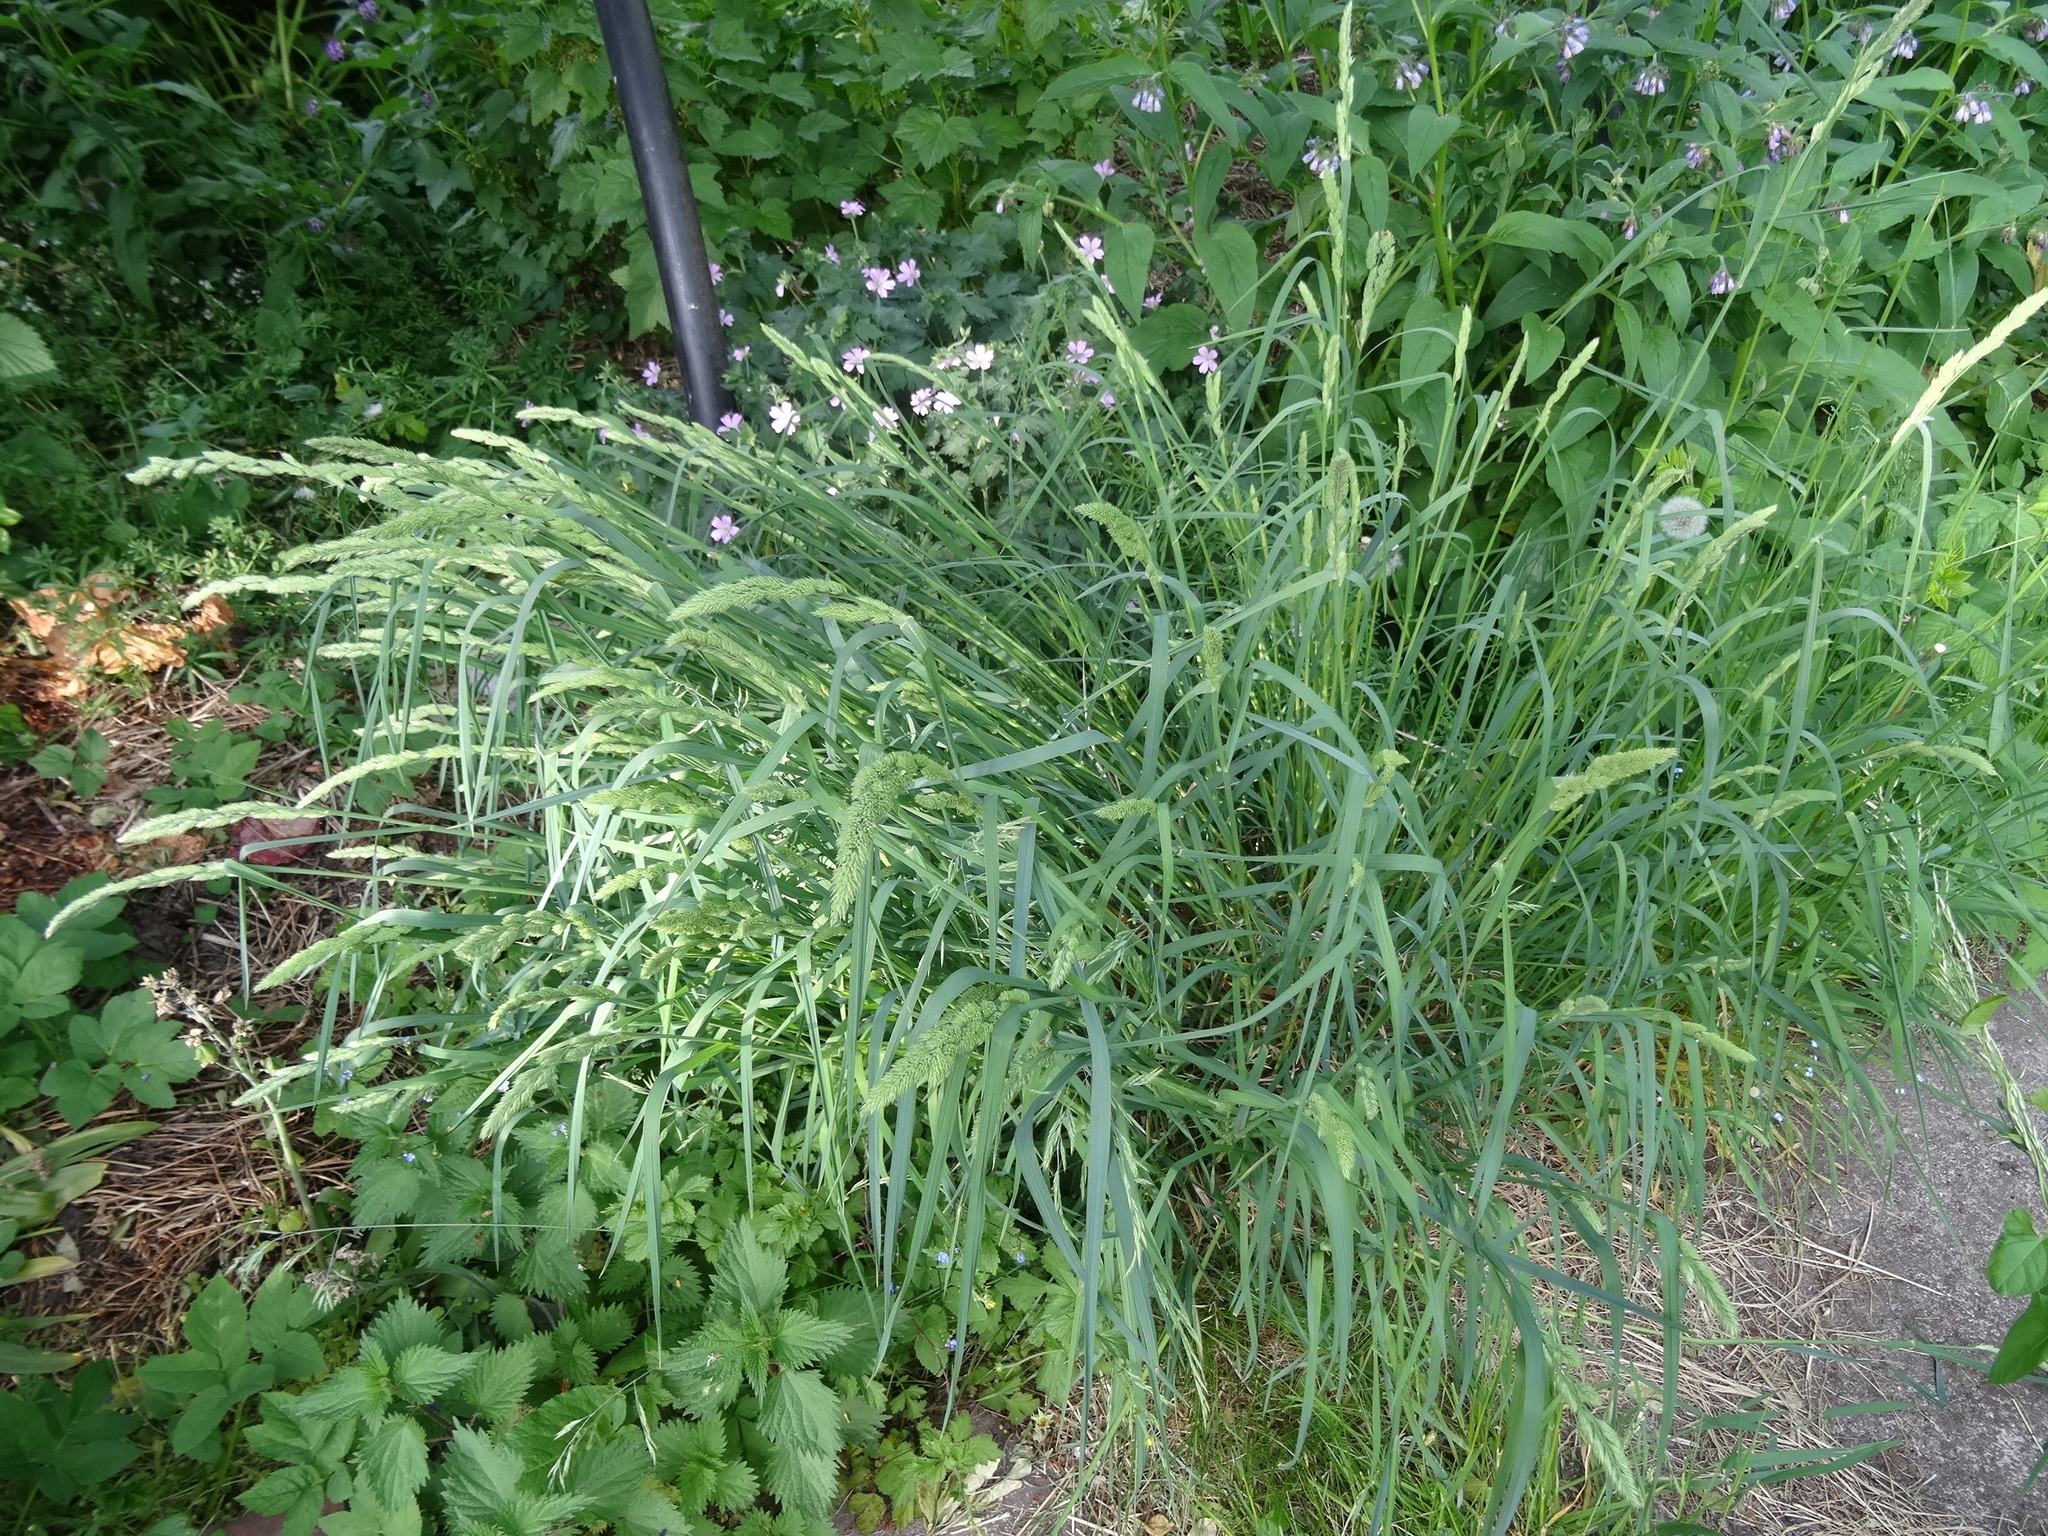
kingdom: Plantae
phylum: Tracheophyta
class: Liliopsida
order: Poales
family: Poaceae
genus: Dactylis
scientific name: Dactylis glomerata
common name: Orchardgrass
